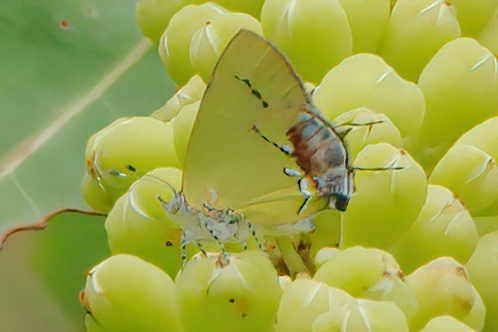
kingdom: Animalia
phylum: Arthropoda
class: Insecta
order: Lepidoptera
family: Lycaenidae
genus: Thecla
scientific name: Thecla maesites
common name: Verde azul hairstreak
